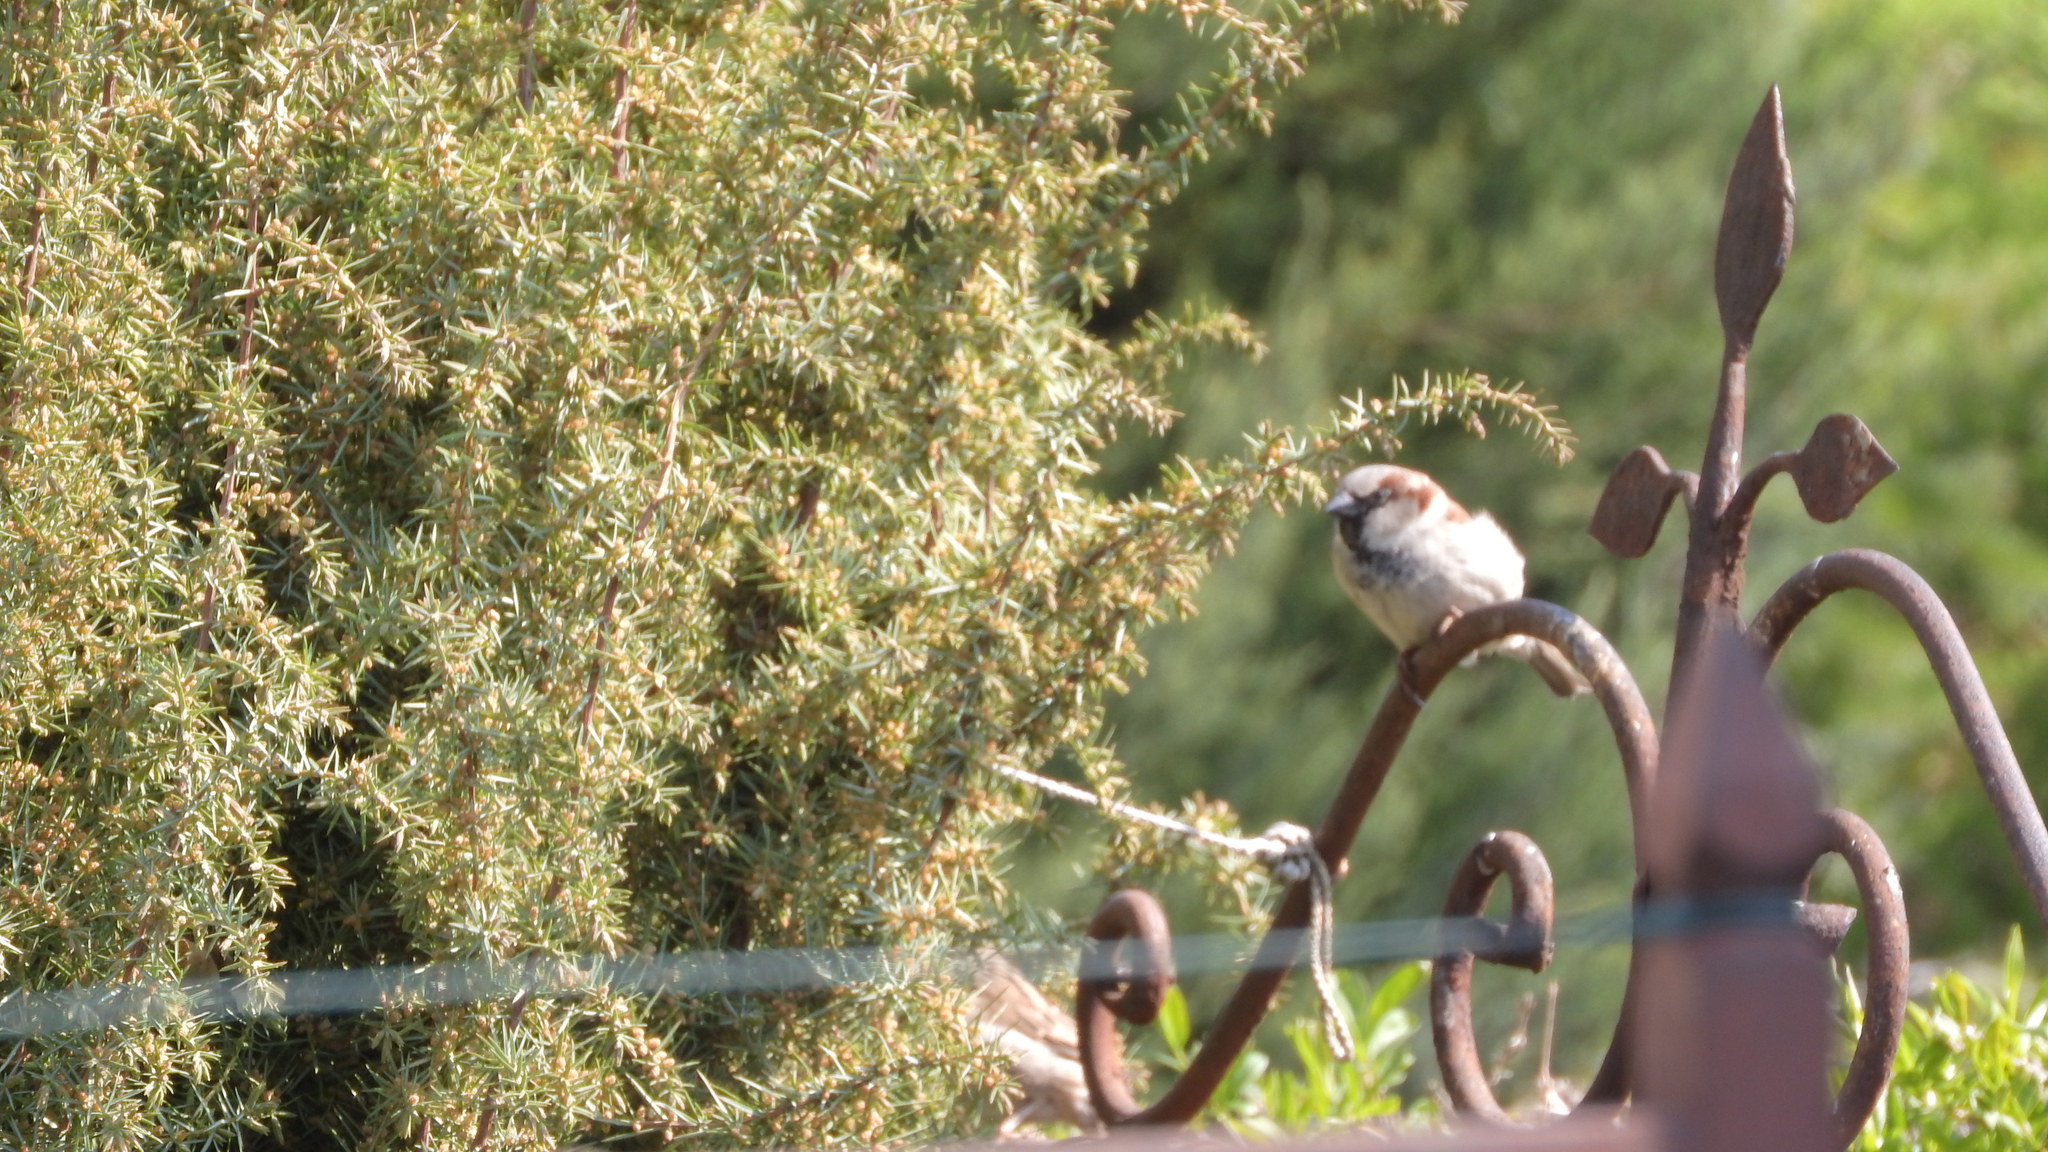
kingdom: Animalia
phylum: Chordata
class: Aves
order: Passeriformes
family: Passeridae
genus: Passer
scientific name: Passer domesticus
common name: House sparrow
